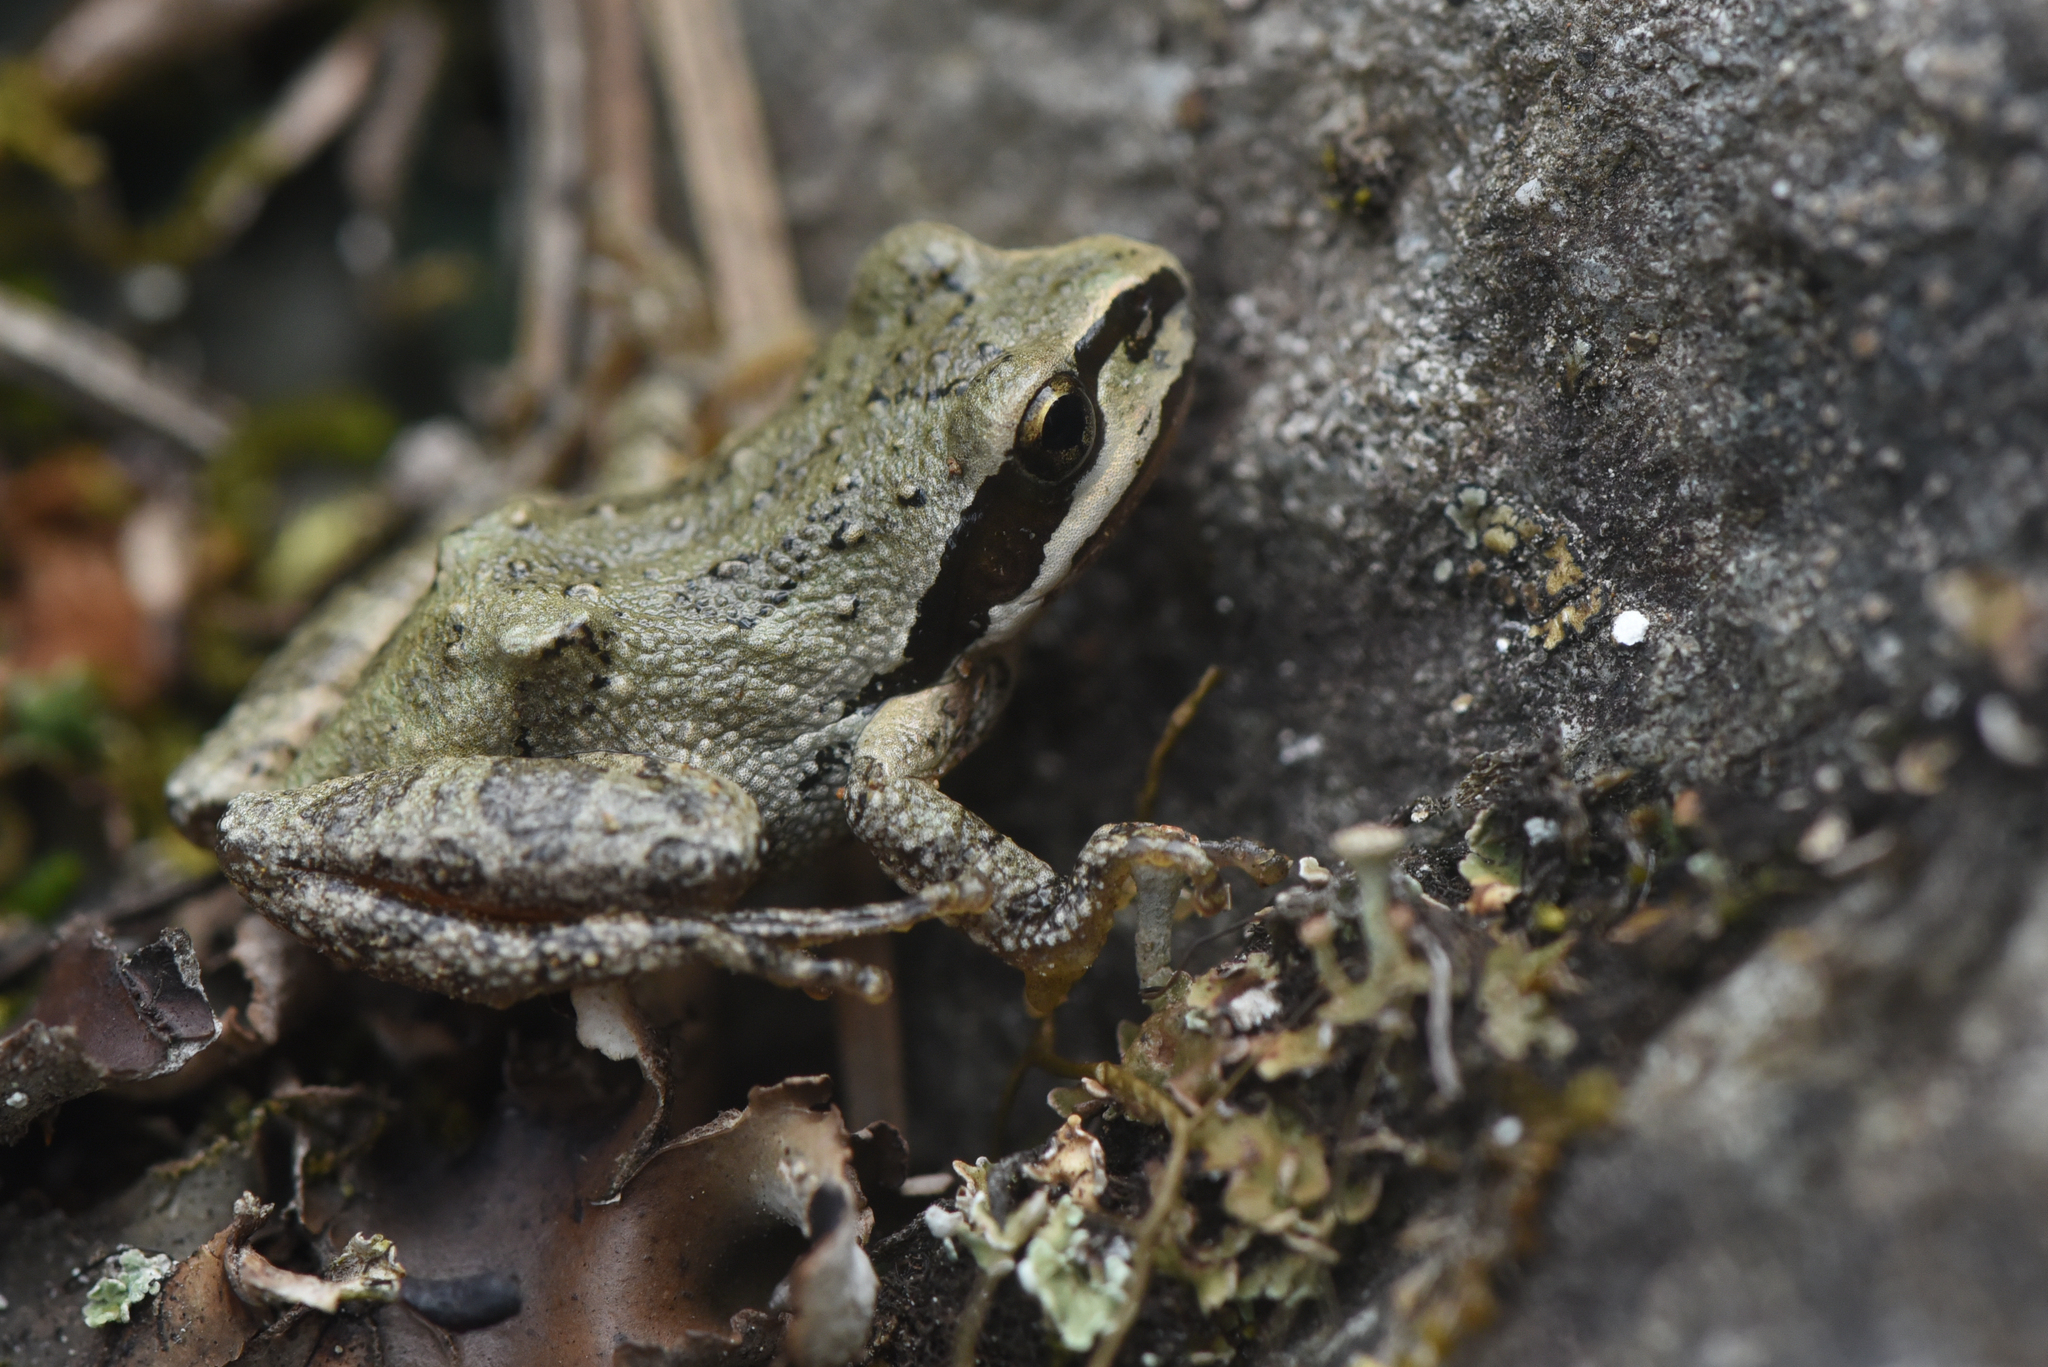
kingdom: Animalia
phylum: Chordata
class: Amphibia
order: Anura
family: Hylidae
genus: Pseudacris
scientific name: Pseudacris regilla
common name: Pacific chorus frog
